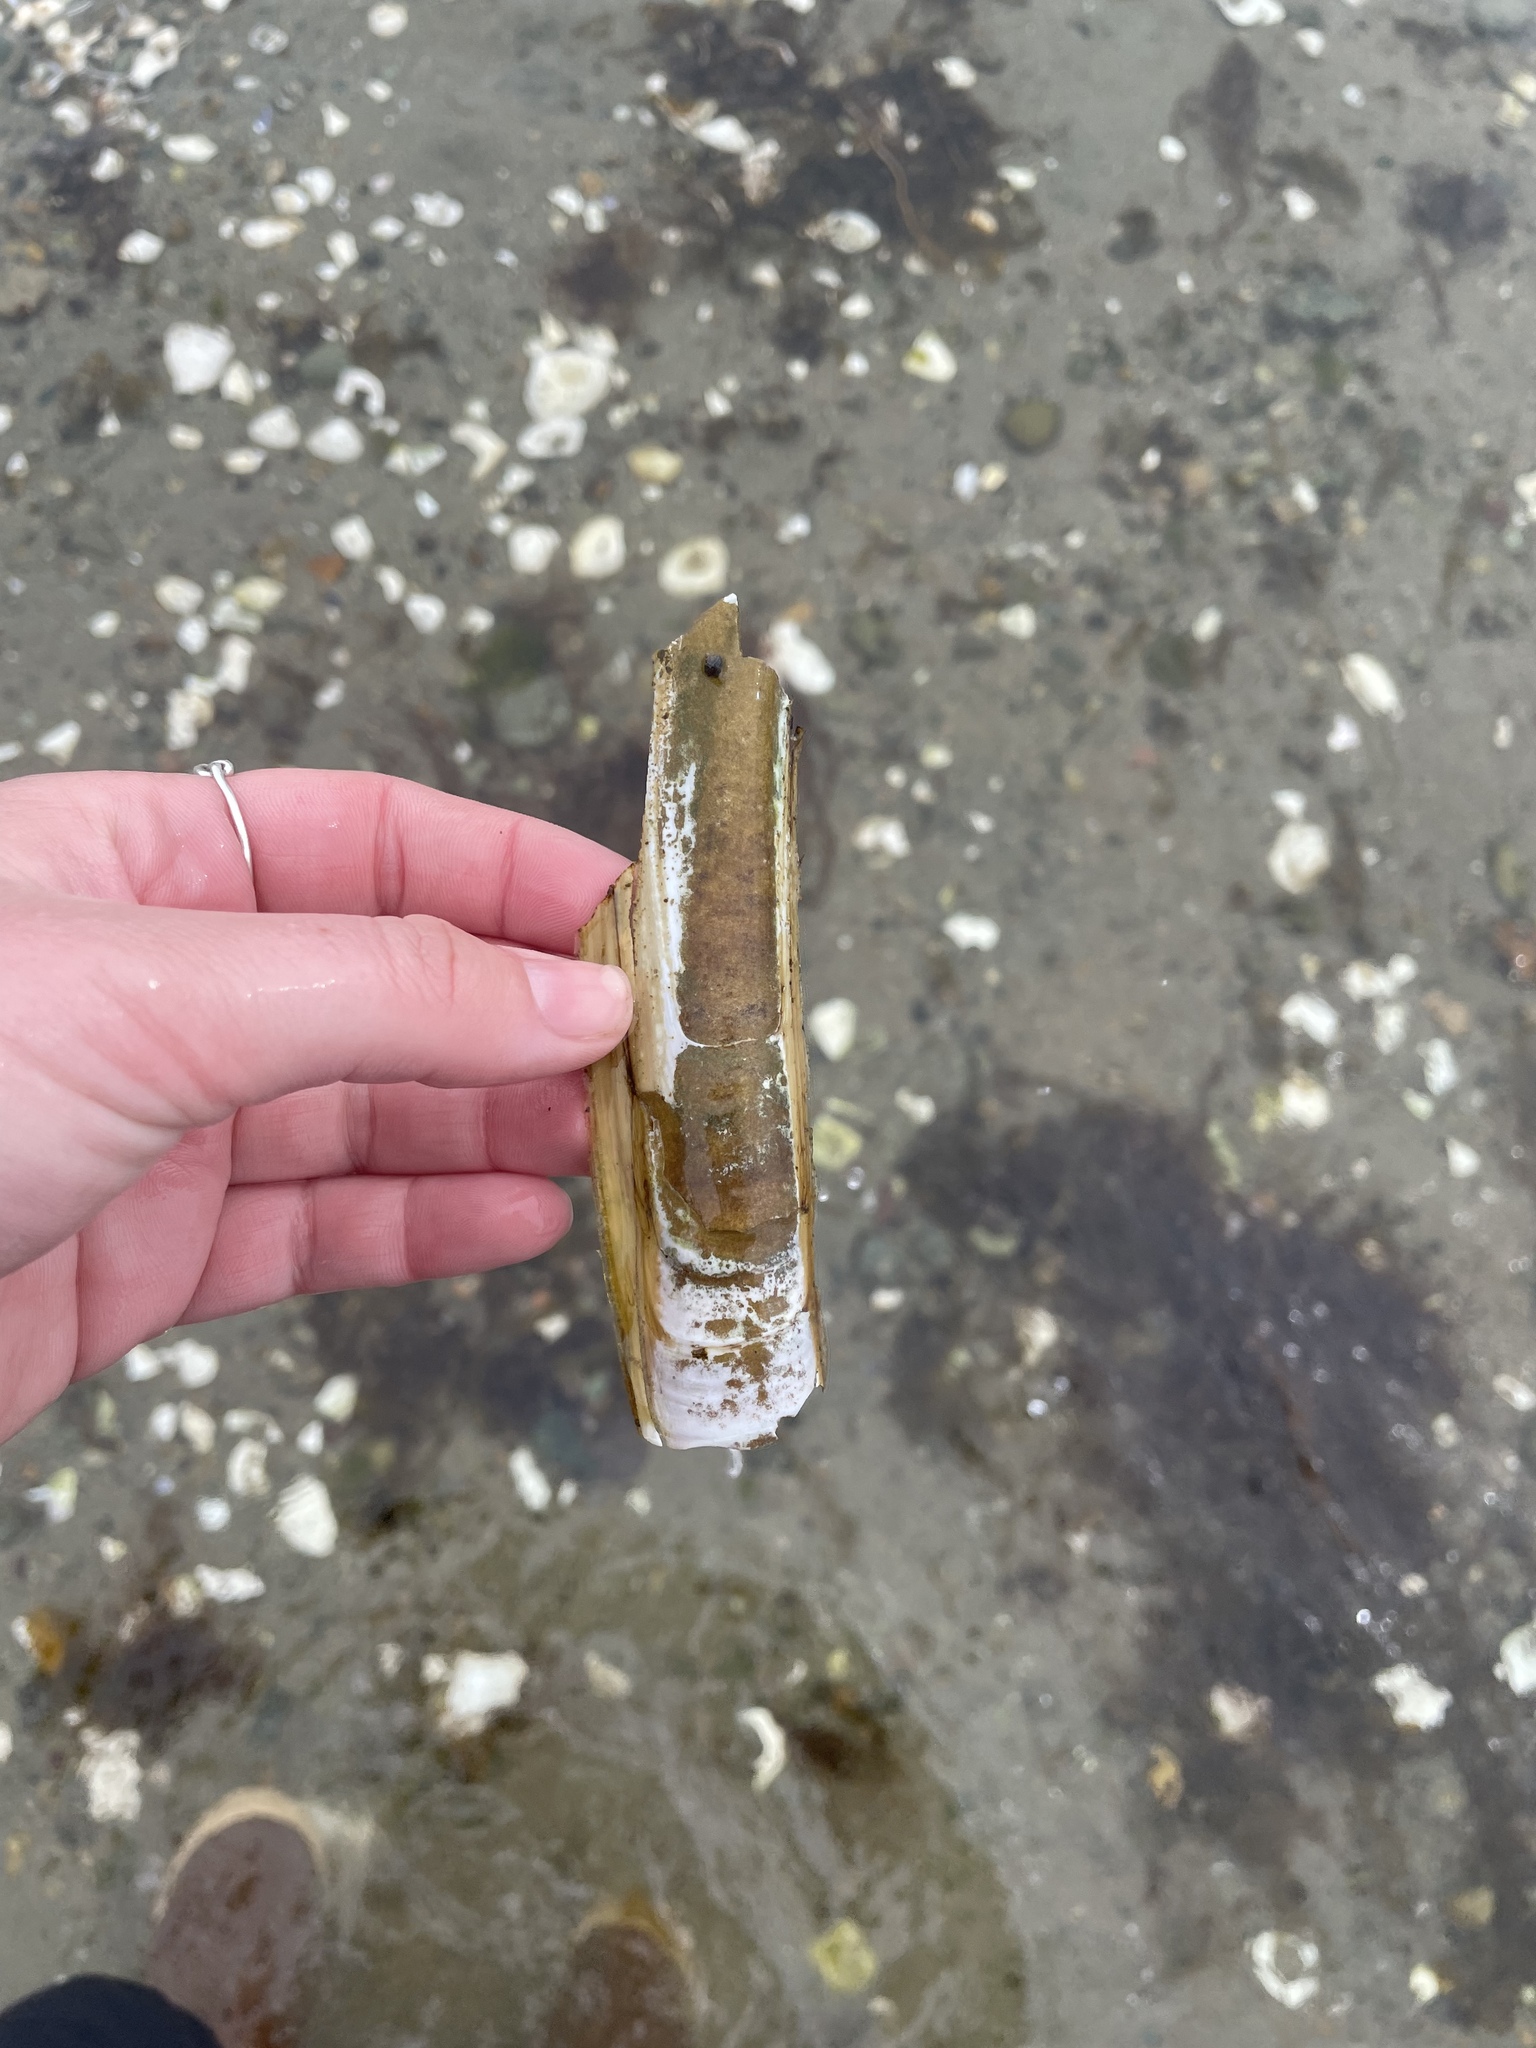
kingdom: Animalia
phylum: Mollusca
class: Bivalvia
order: Adapedonta
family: Pharidae
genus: Ensis
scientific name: Ensis leei
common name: American jack knife clam
